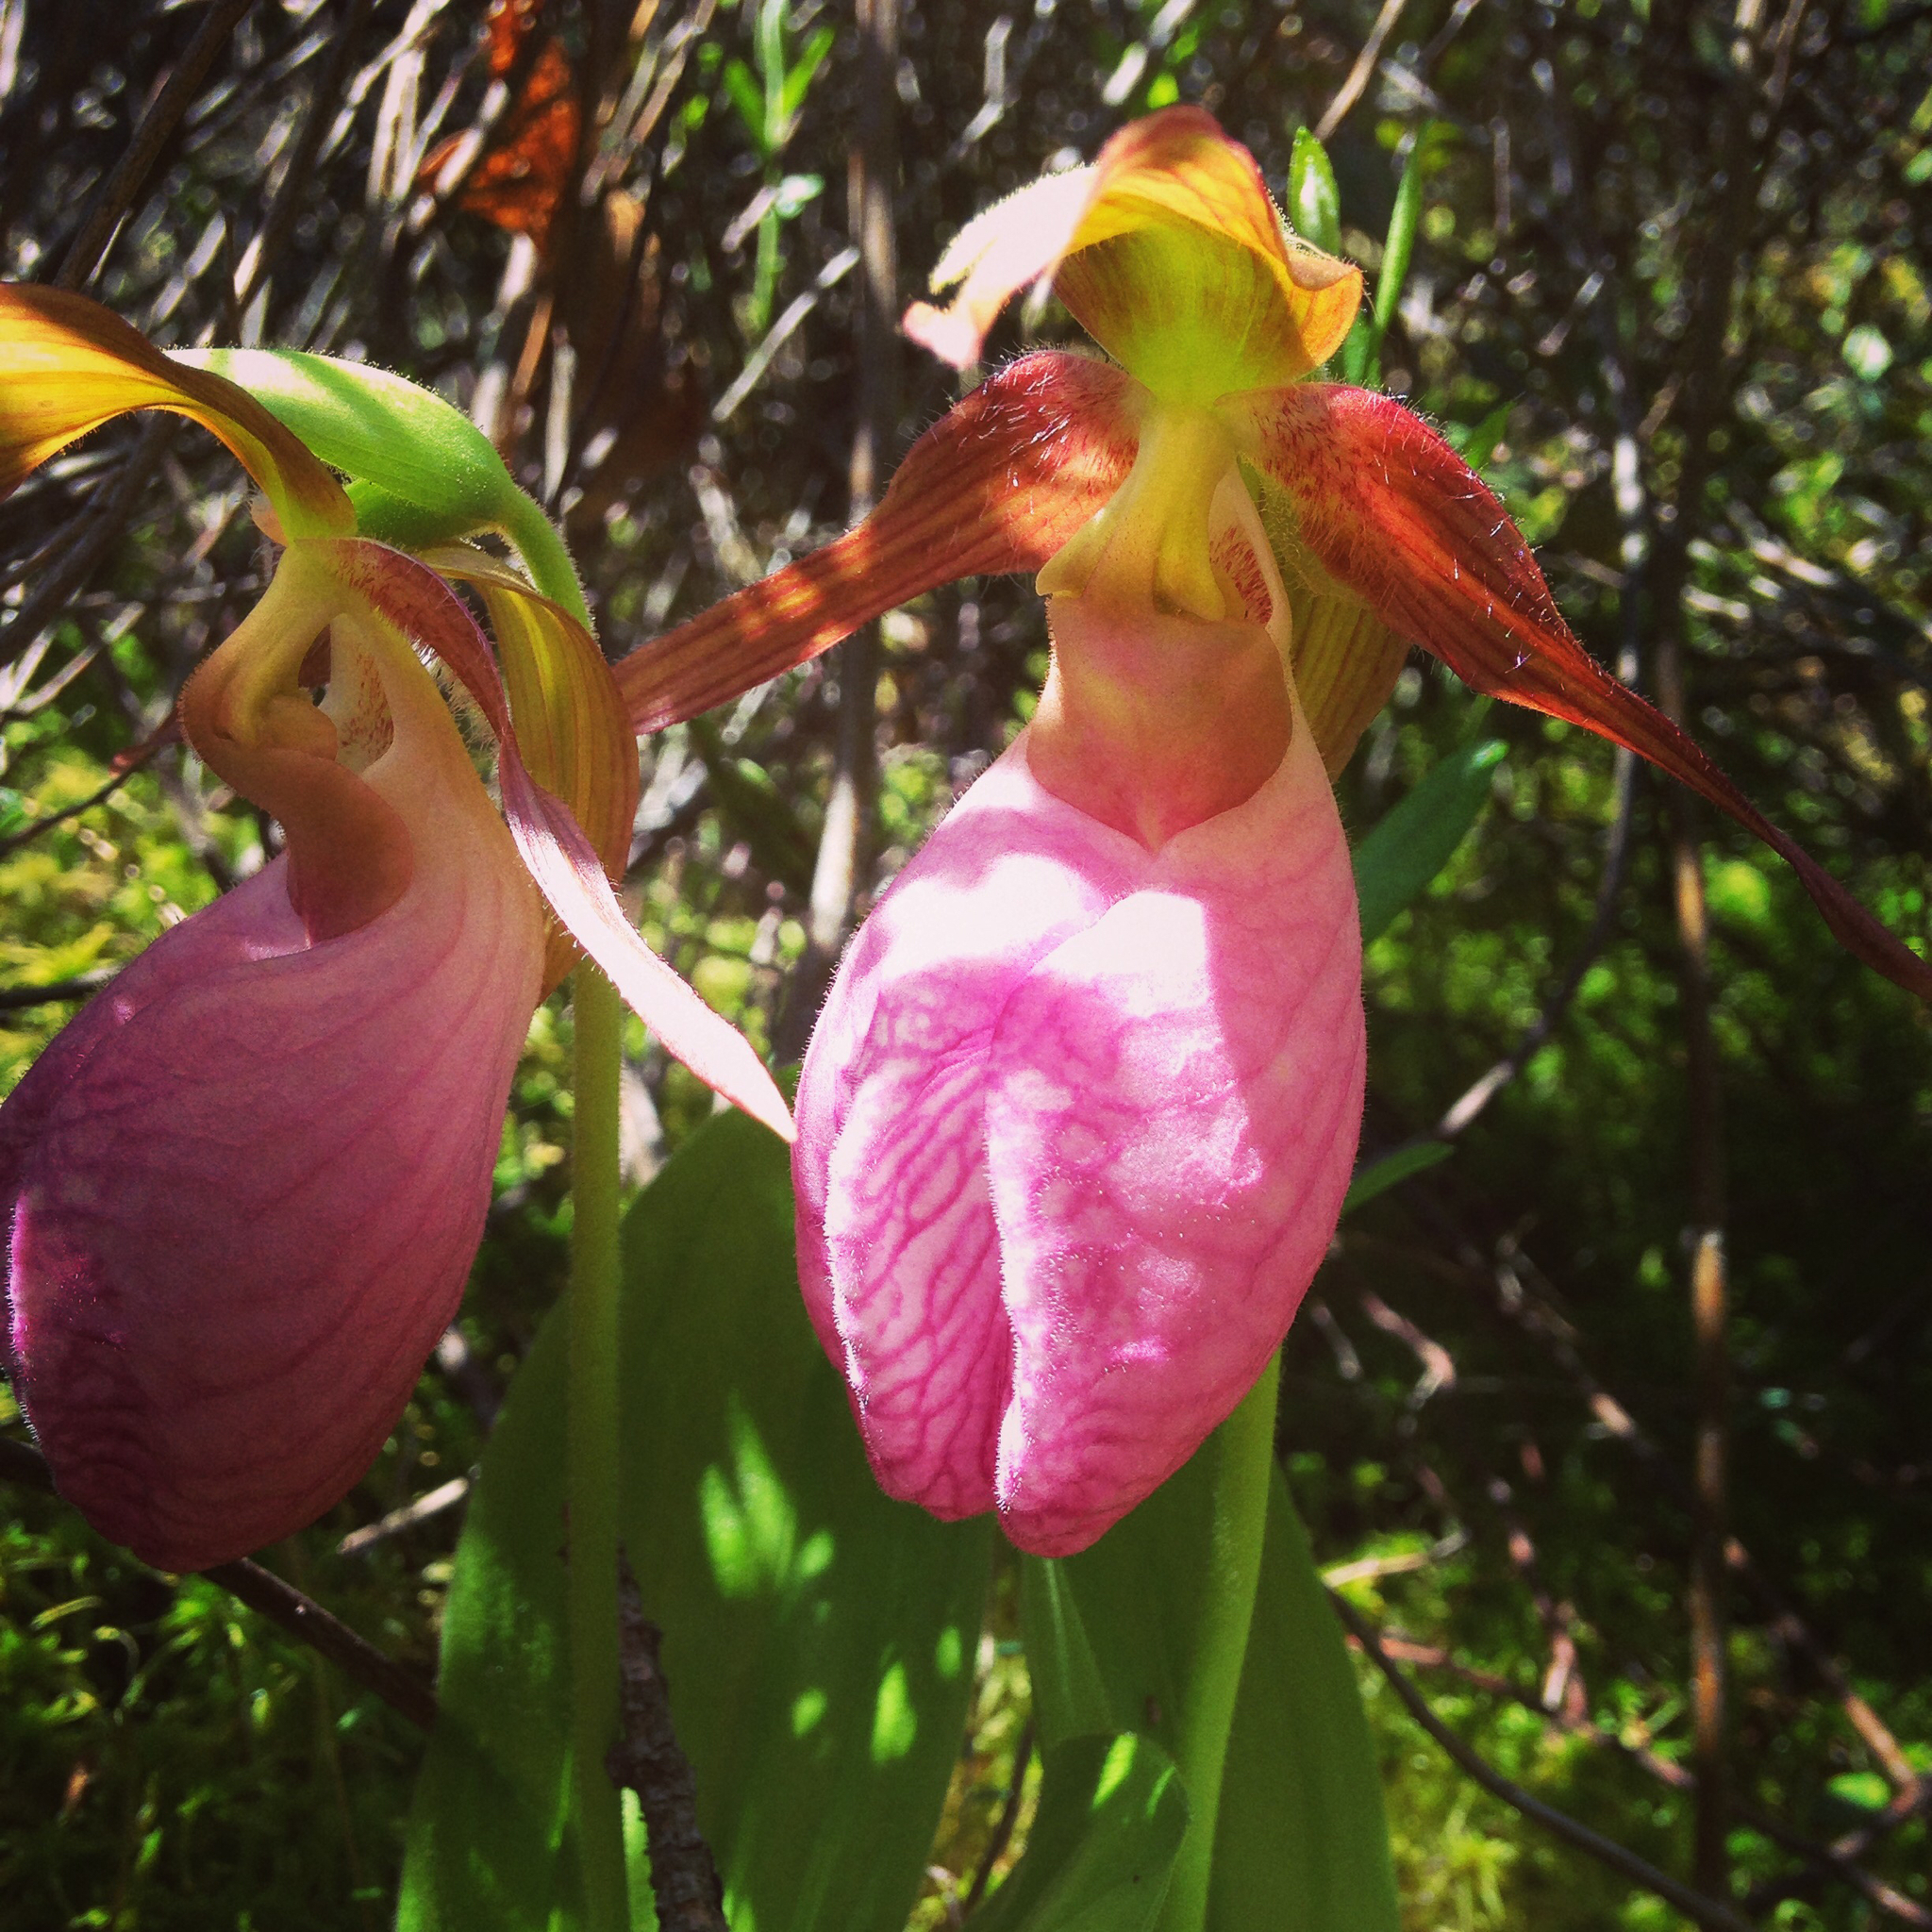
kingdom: Plantae
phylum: Tracheophyta
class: Liliopsida
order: Asparagales
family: Orchidaceae
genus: Cypripedium
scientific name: Cypripedium acaule
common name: Pink lady's-slipper
